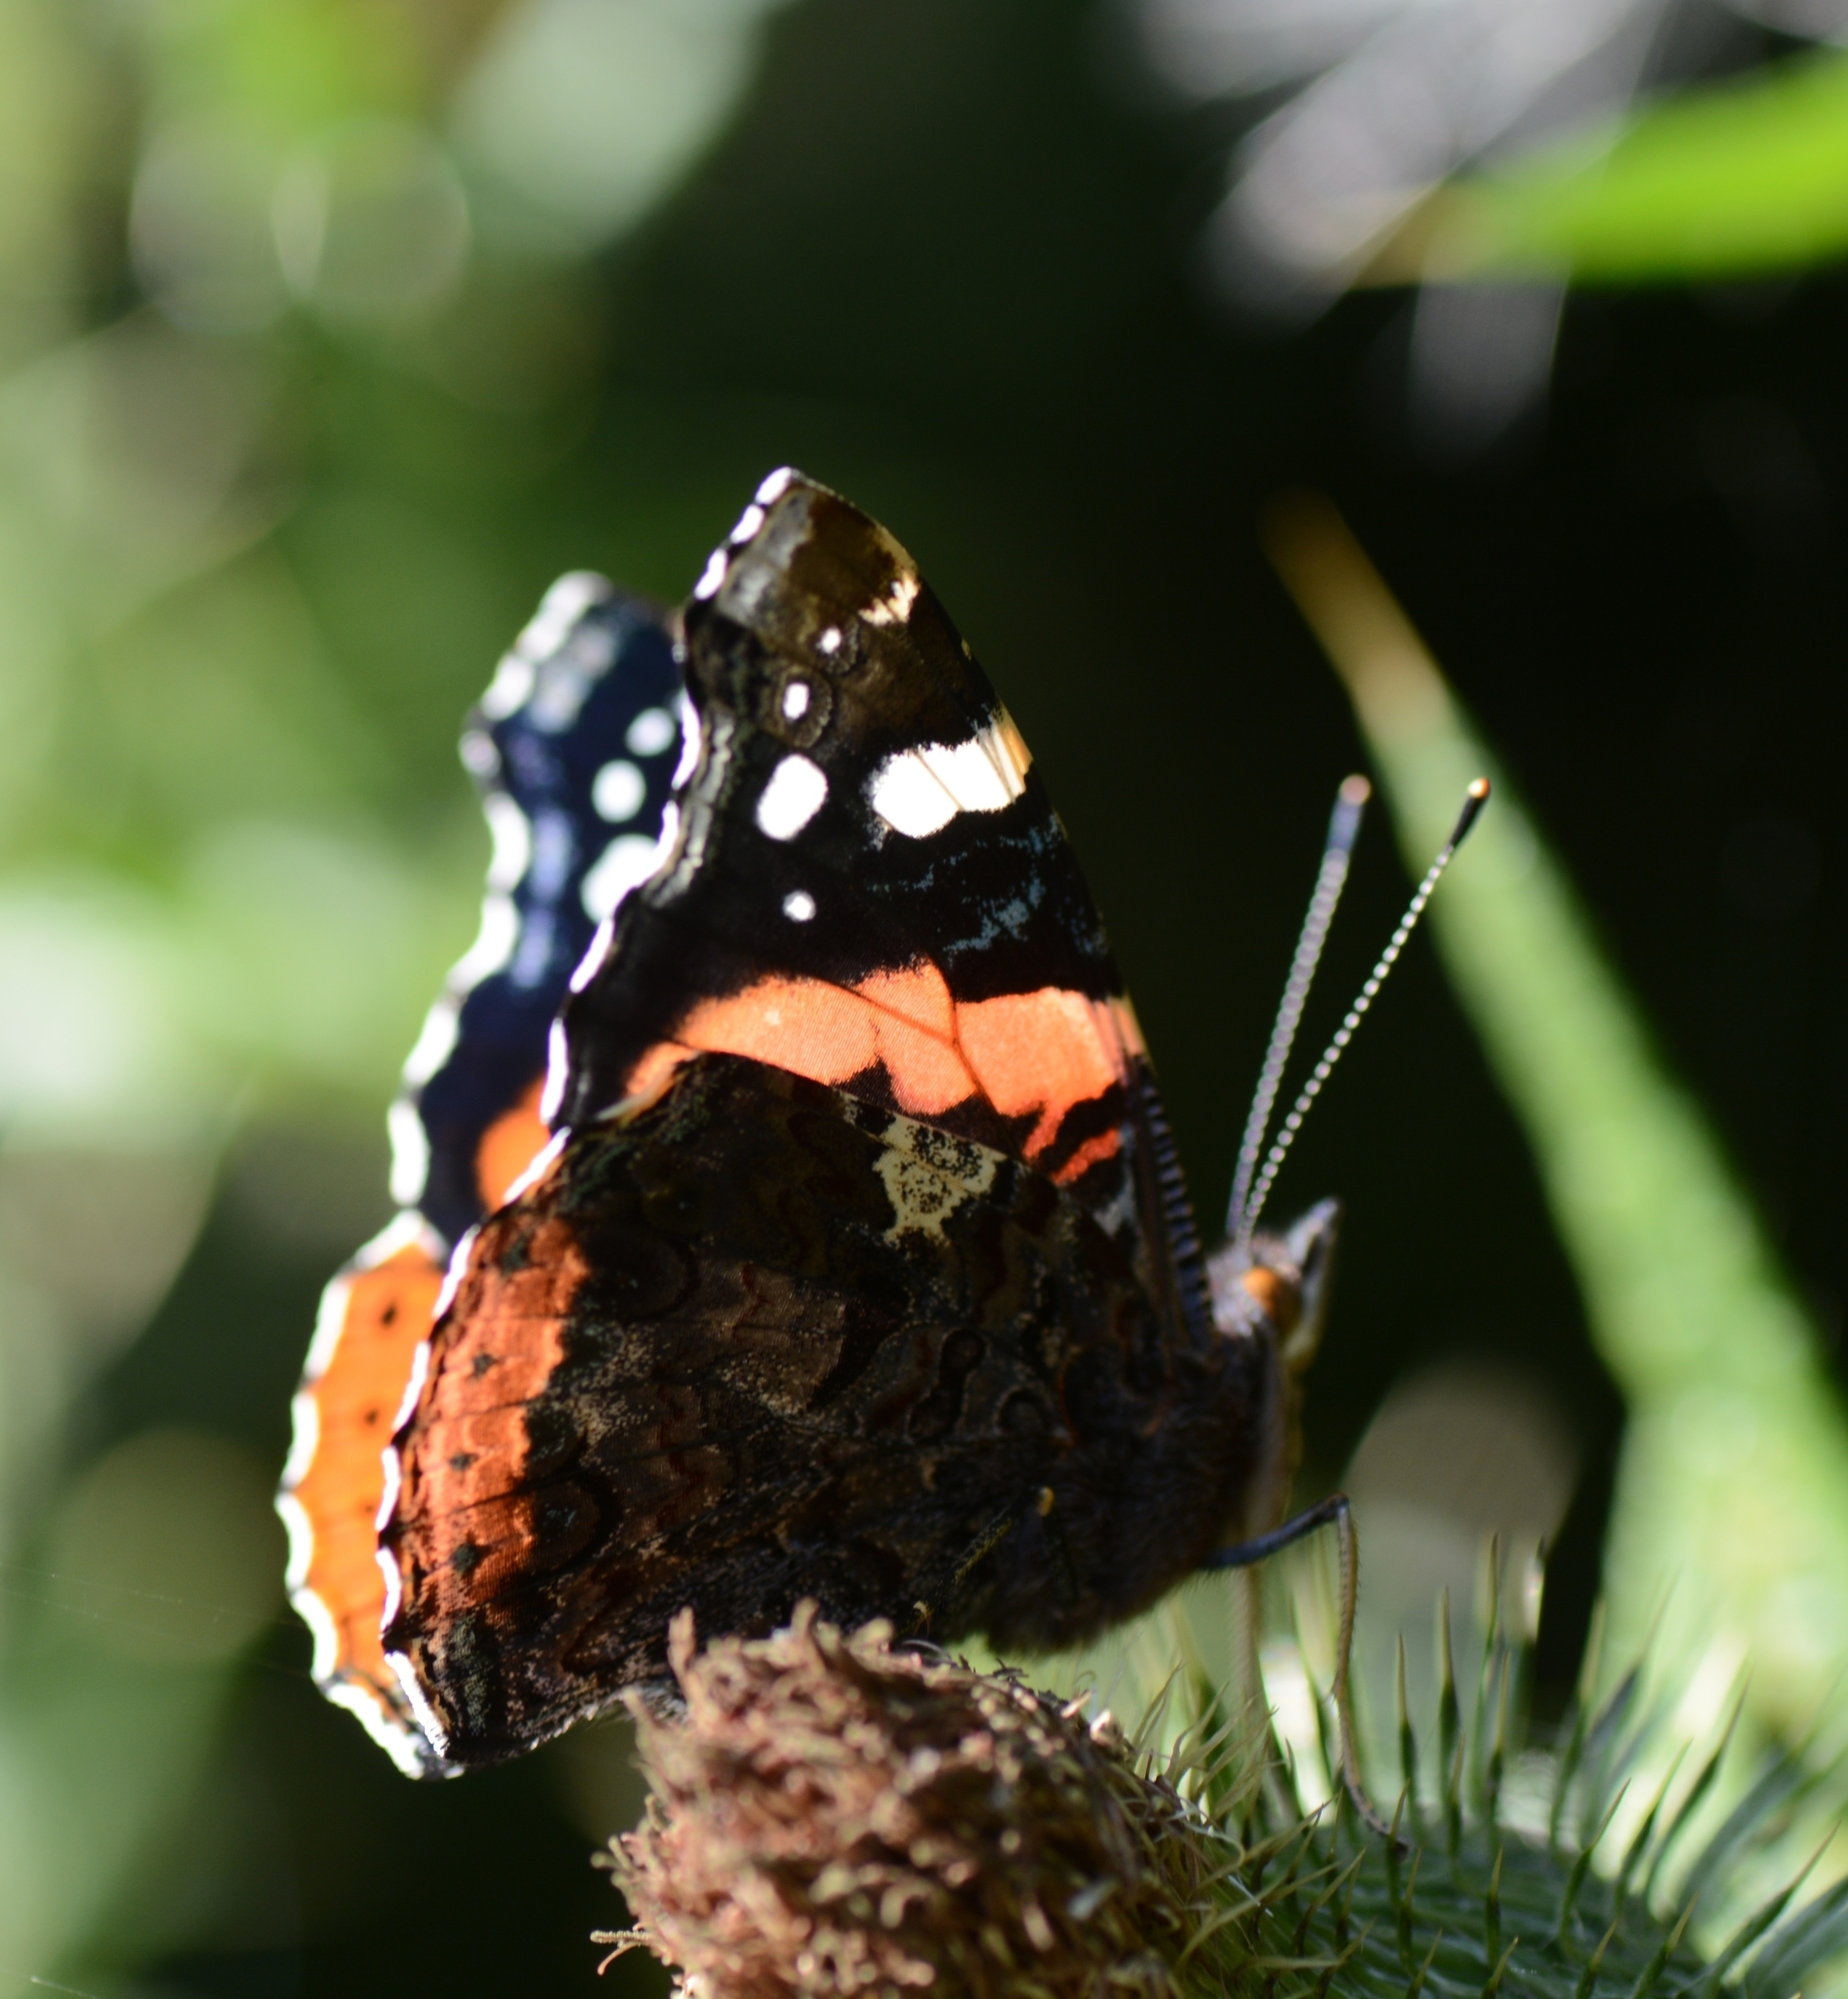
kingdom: Animalia
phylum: Arthropoda
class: Insecta
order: Lepidoptera
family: Nymphalidae
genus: Vanessa
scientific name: Vanessa atalanta
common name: Red admiral
